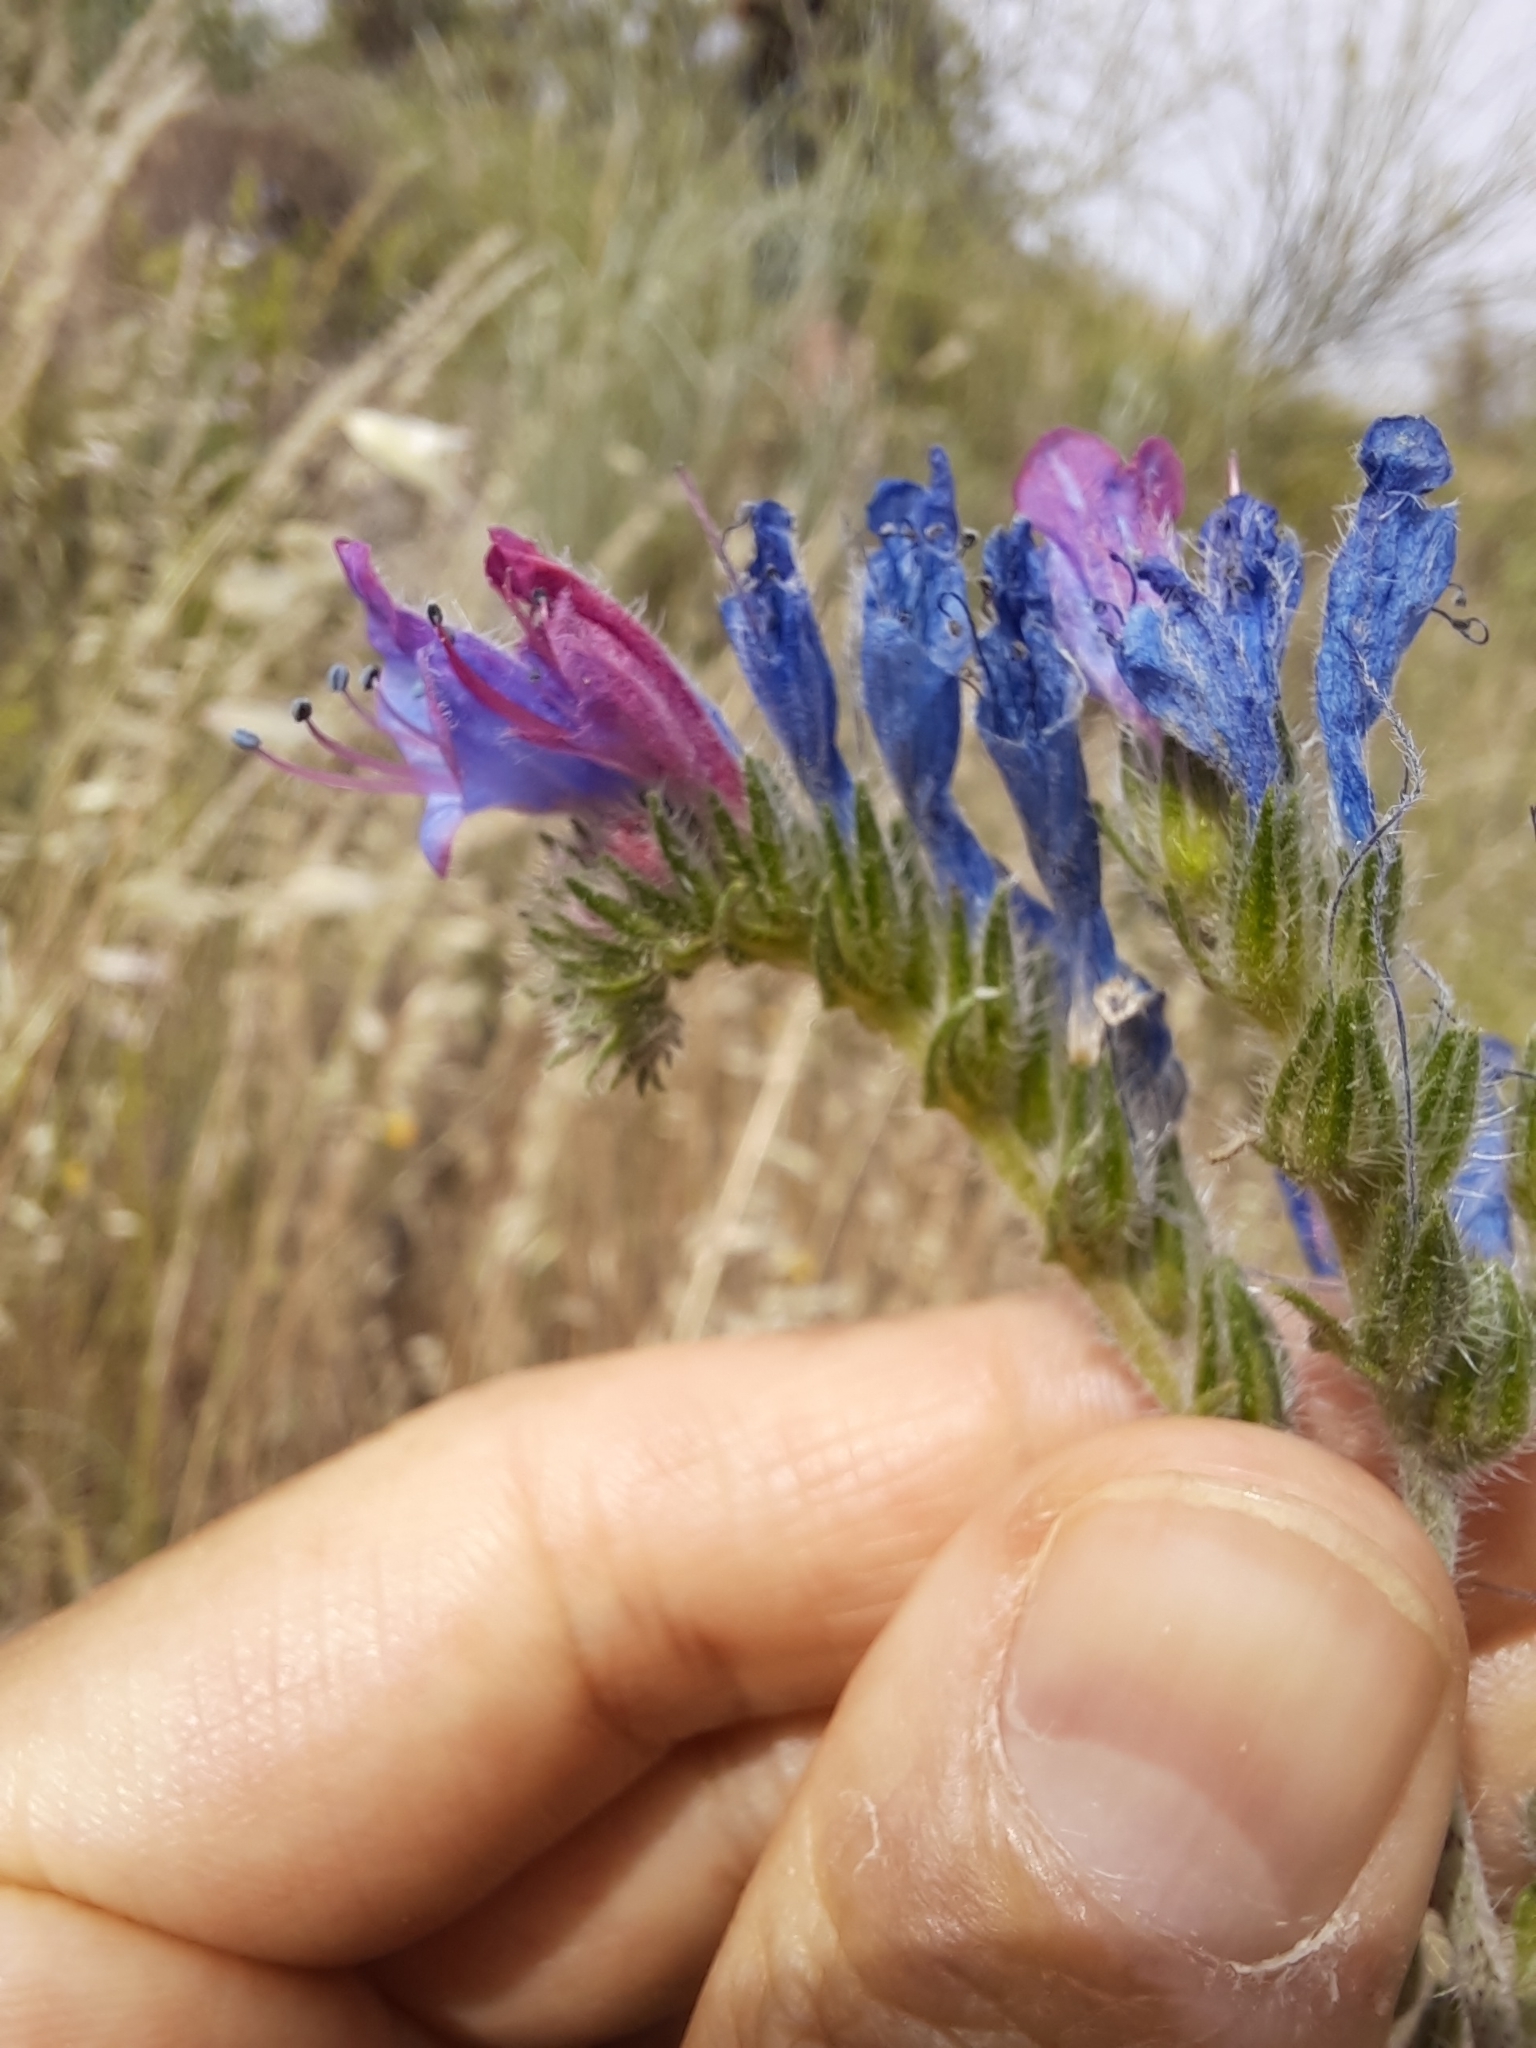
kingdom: Plantae
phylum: Tracheophyta
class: Magnoliopsida
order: Boraginales
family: Boraginaceae
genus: Echium
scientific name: Echium vulgare
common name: Common viper's bugloss
